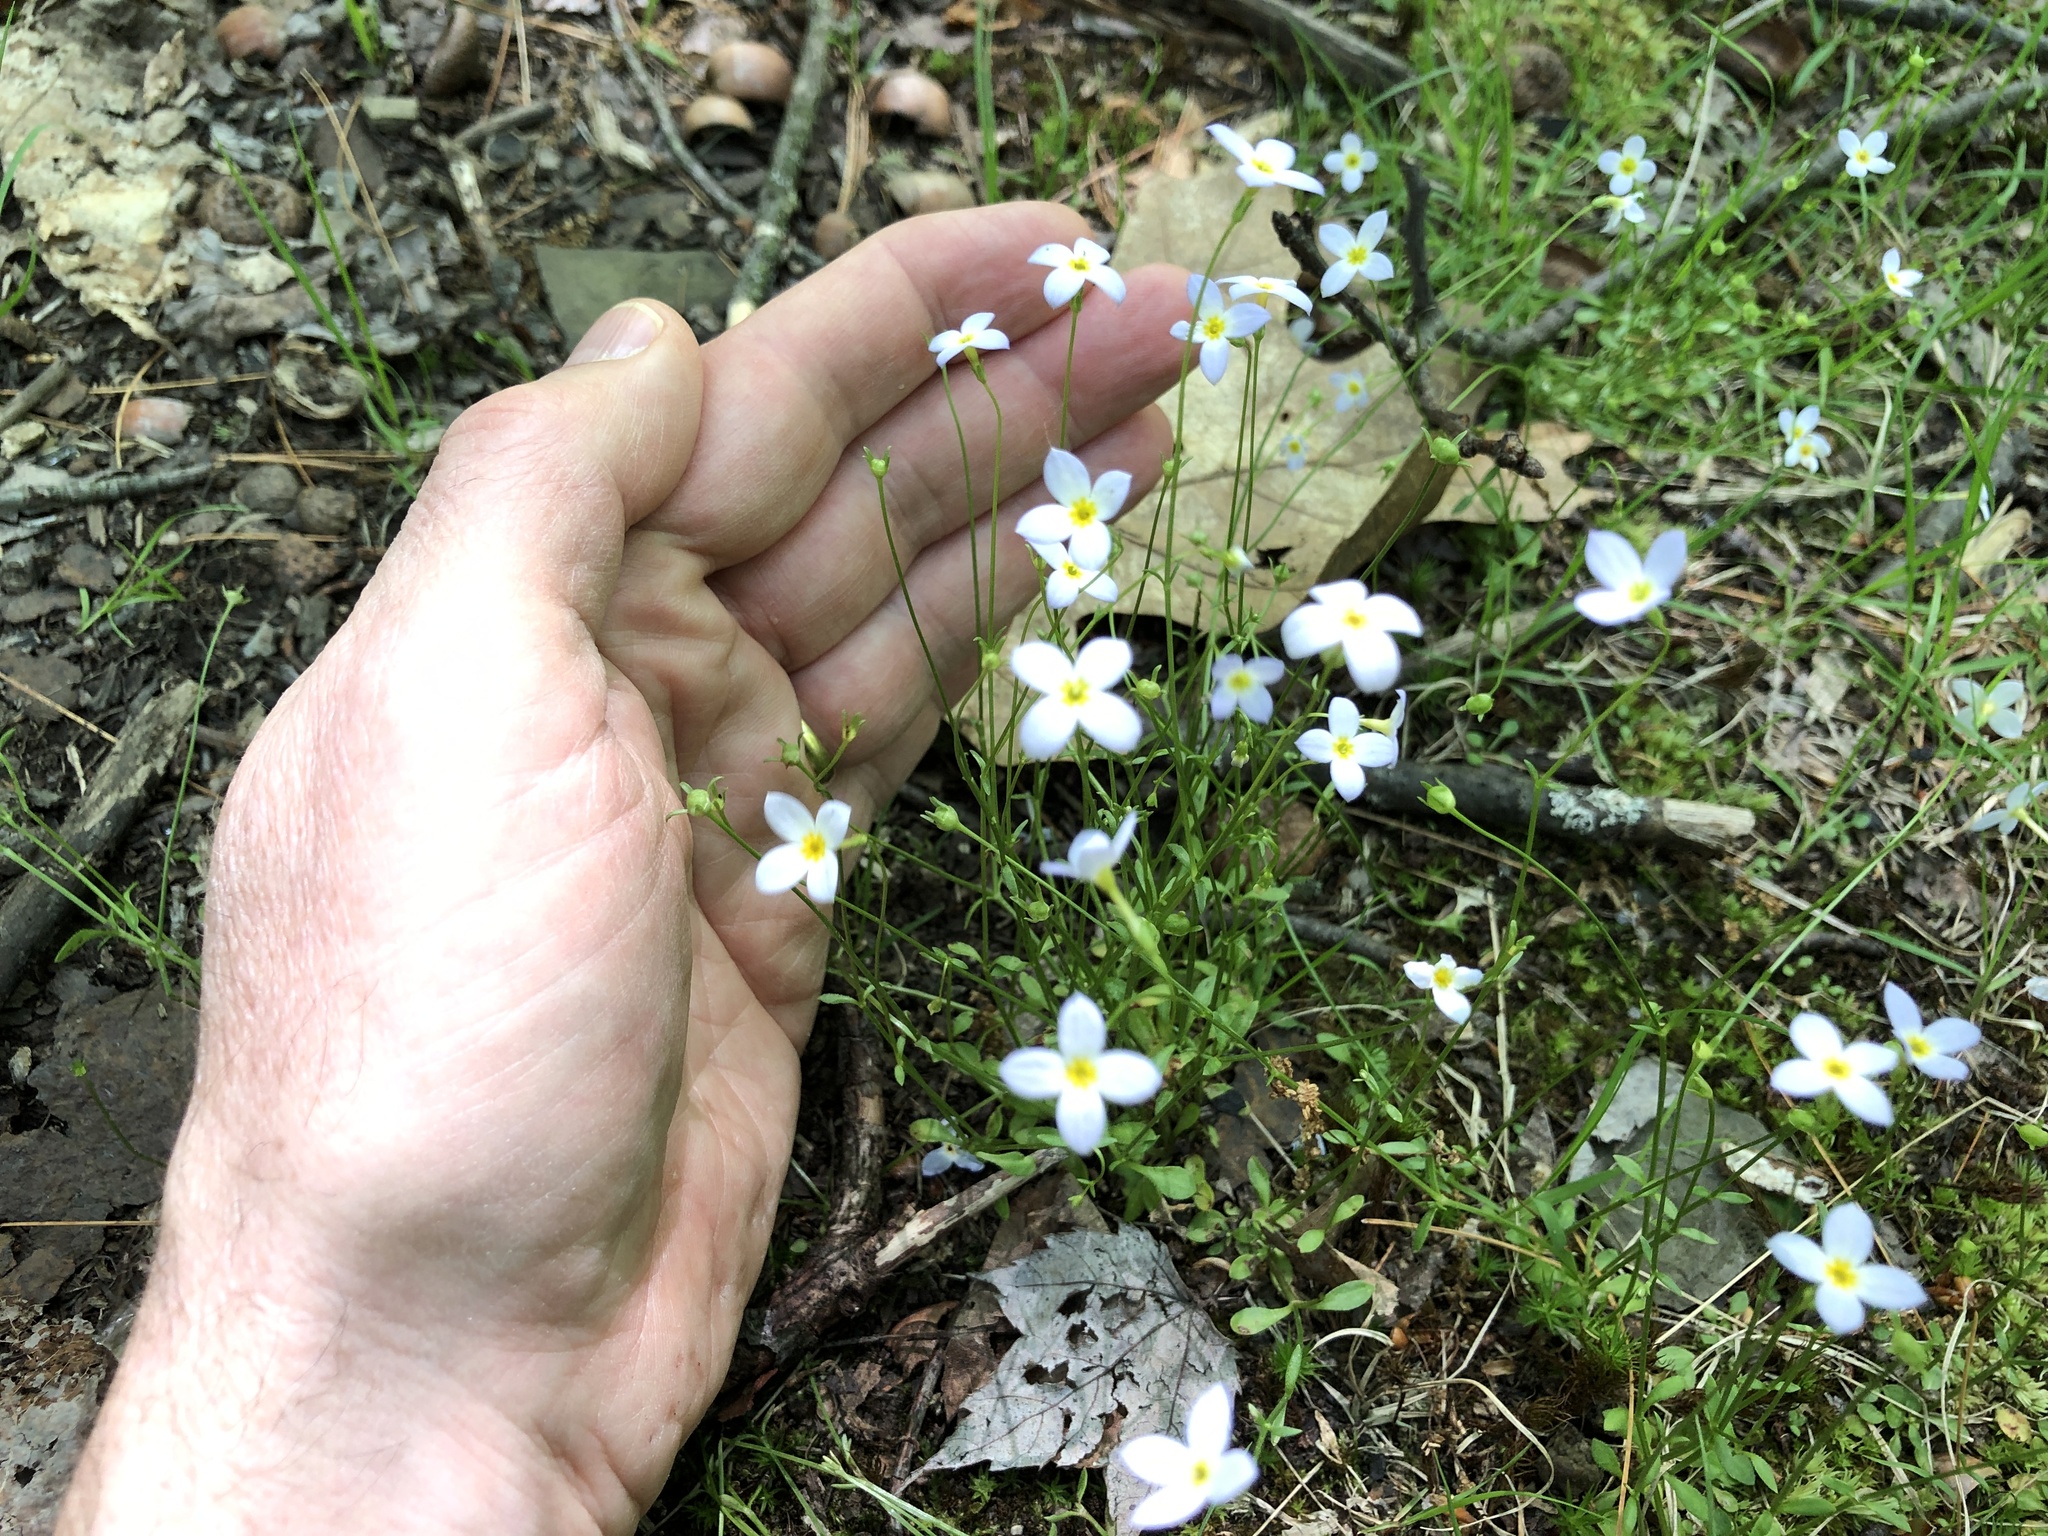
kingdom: Plantae
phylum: Tracheophyta
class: Magnoliopsida
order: Gentianales
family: Rubiaceae
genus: Houstonia
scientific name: Houstonia caerulea
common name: Bluets
